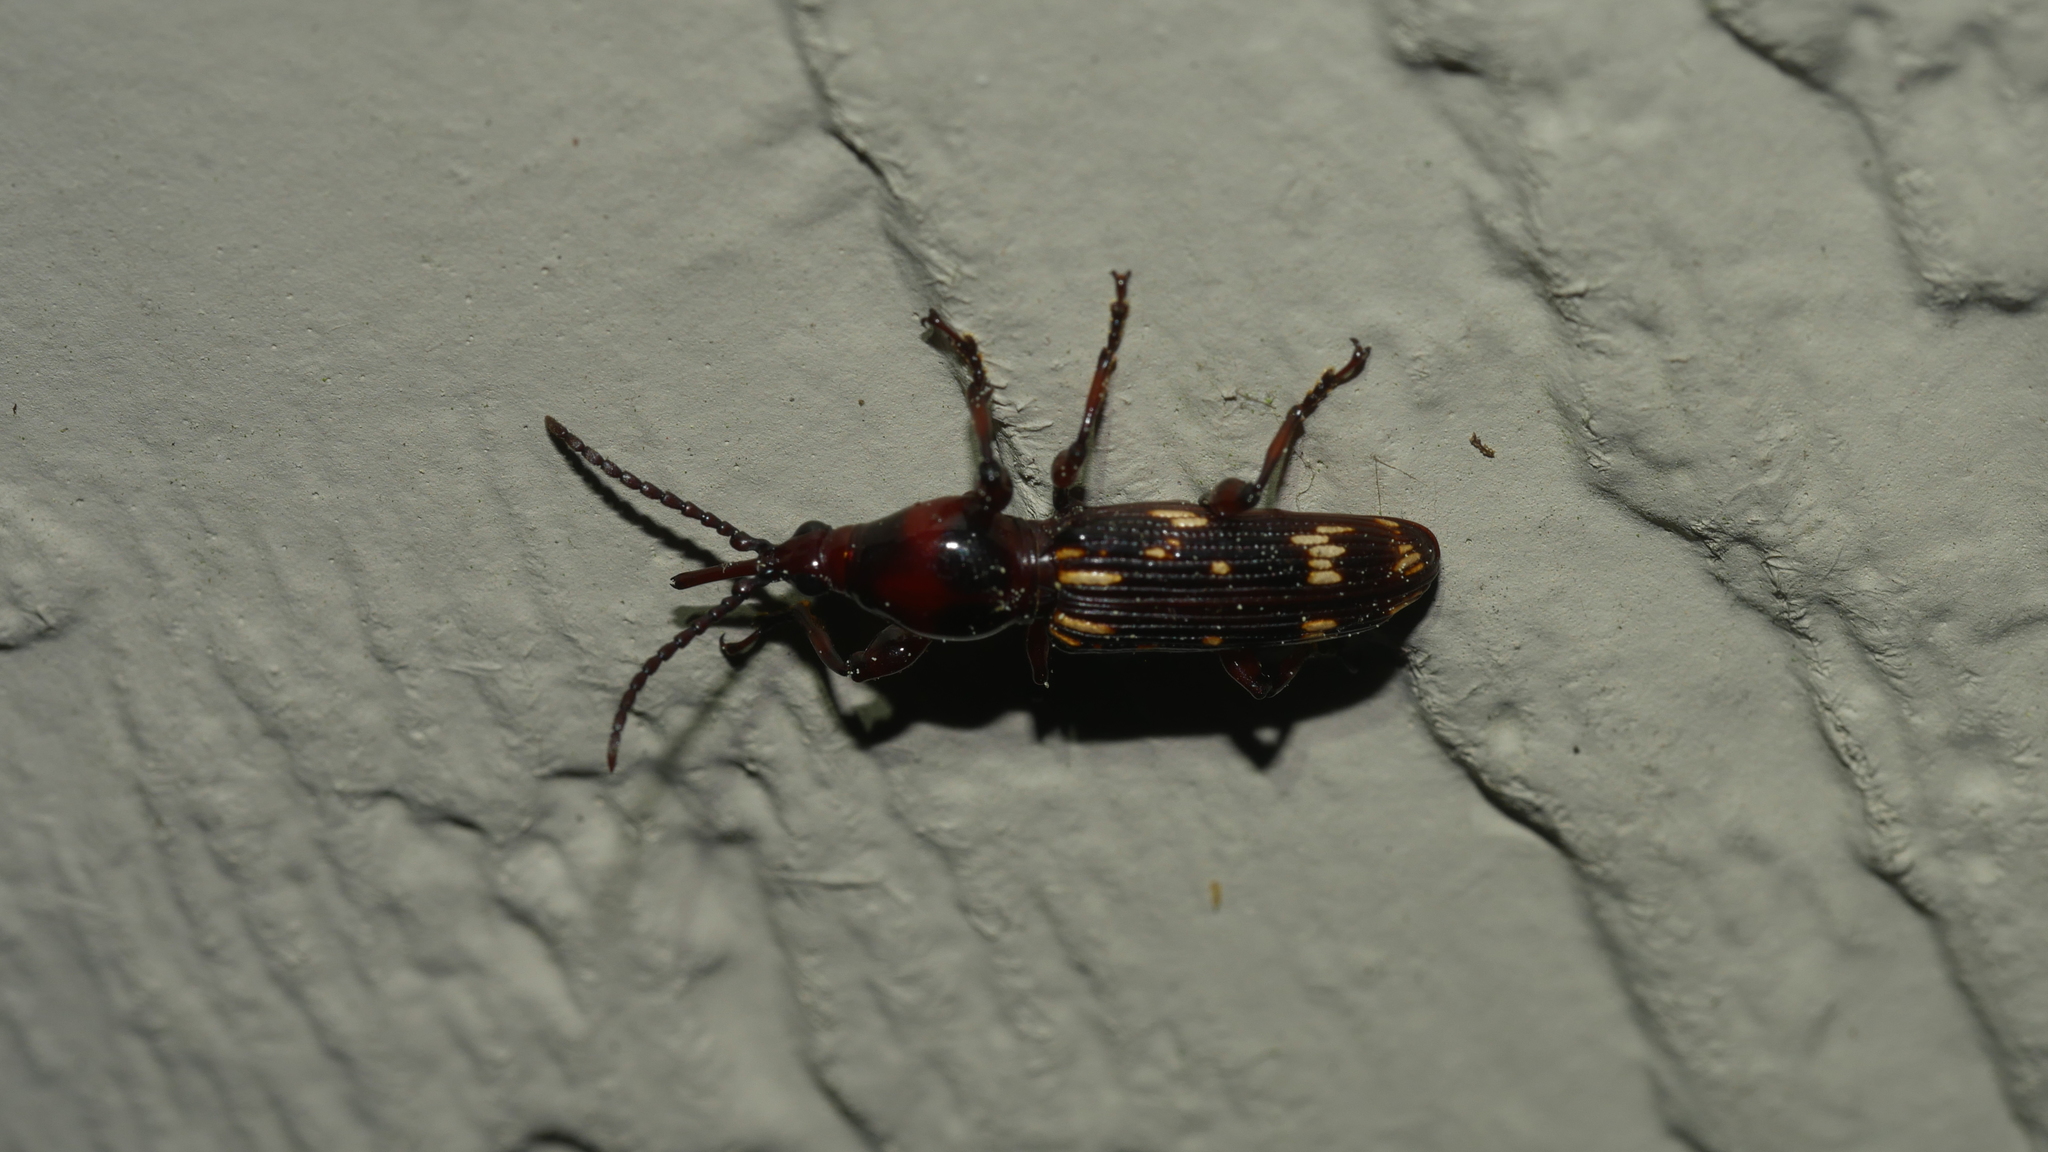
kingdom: Animalia
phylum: Arthropoda
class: Insecta
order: Coleoptera
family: Brentidae
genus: Arrenodes
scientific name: Arrenodes minutus
